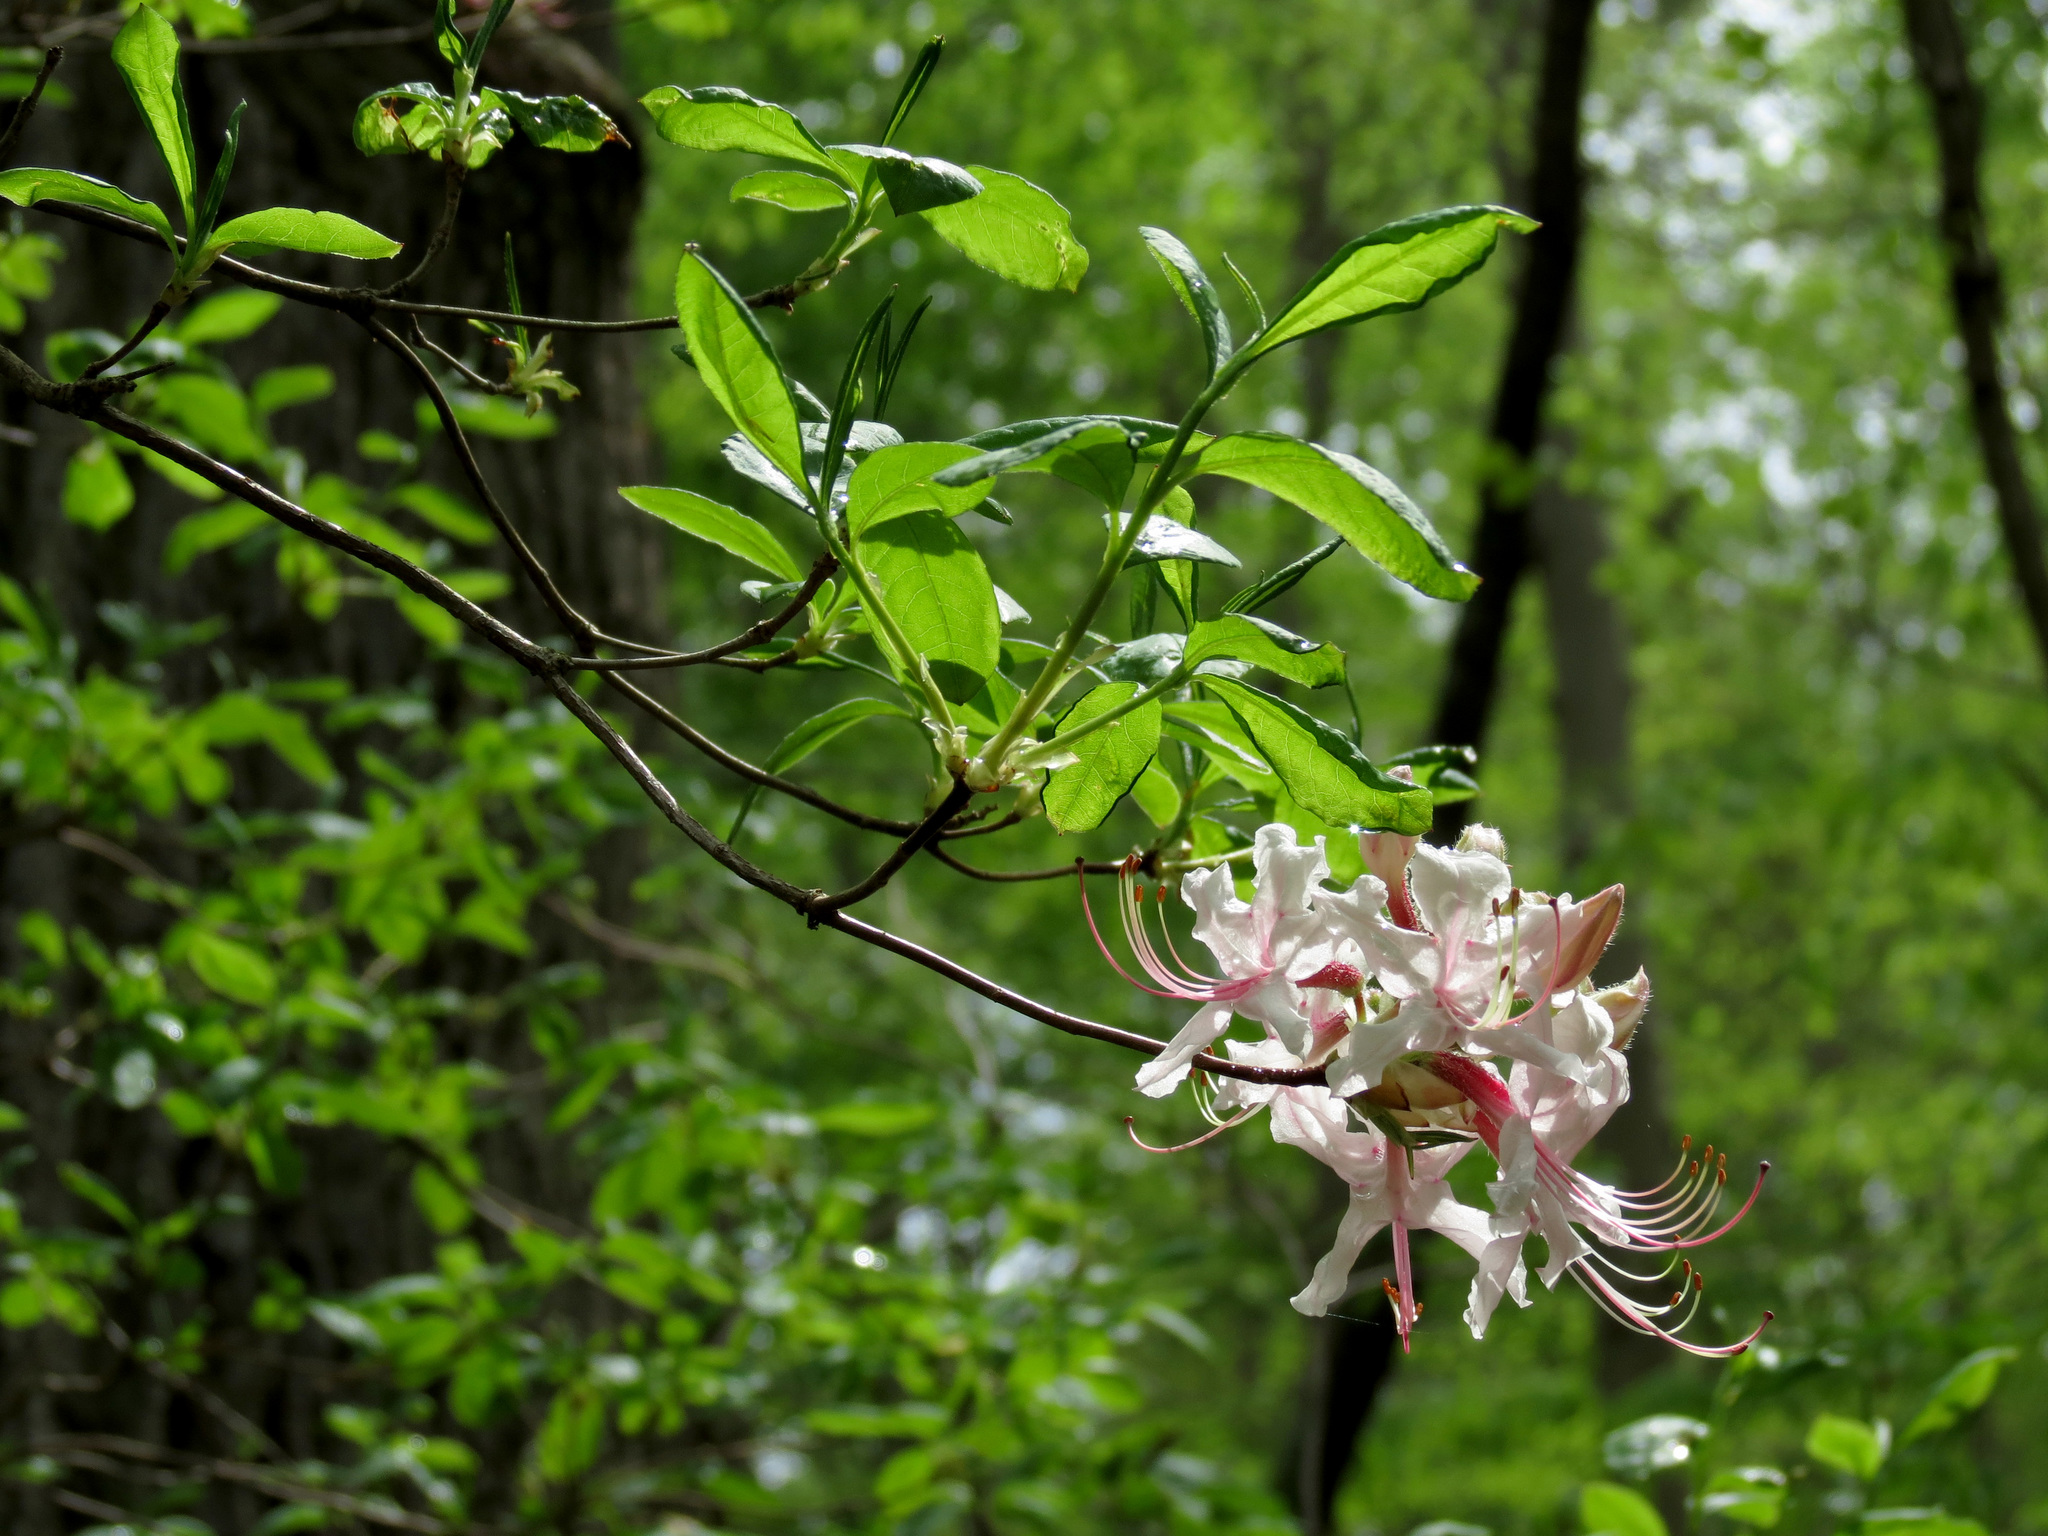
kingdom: Plantae
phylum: Tracheophyta
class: Magnoliopsida
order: Ericales
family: Ericaceae
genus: Rhododendron
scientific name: Rhododendron periclymenoides
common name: Election-pink
